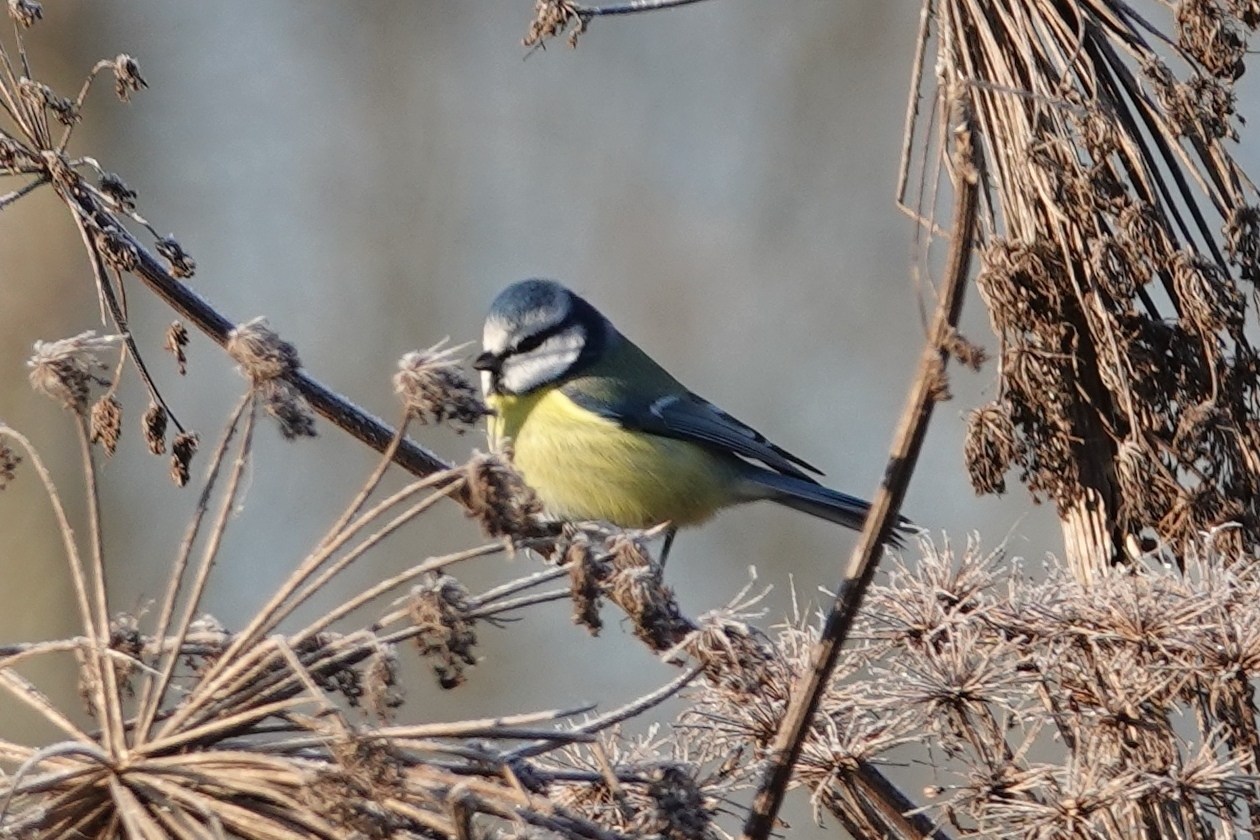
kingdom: Animalia
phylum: Chordata
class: Aves
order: Passeriformes
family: Paridae
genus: Cyanistes
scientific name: Cyanistes caeruleus
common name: Eurasian blue tit
